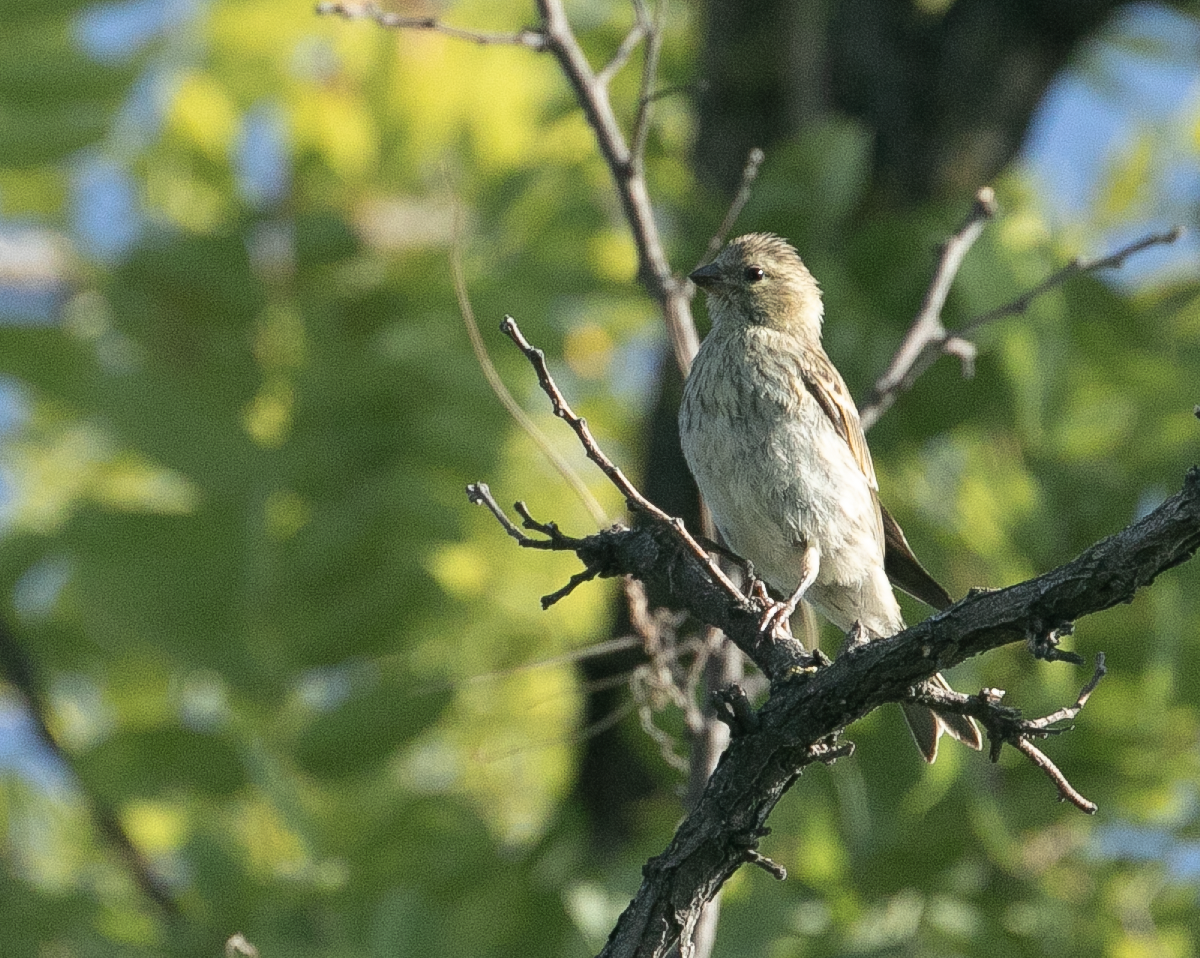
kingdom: Animalia
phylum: Chordata
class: Aves
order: Passeriformes
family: Fringillidae
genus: Serinus
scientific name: Serinus serinus
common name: European serin
